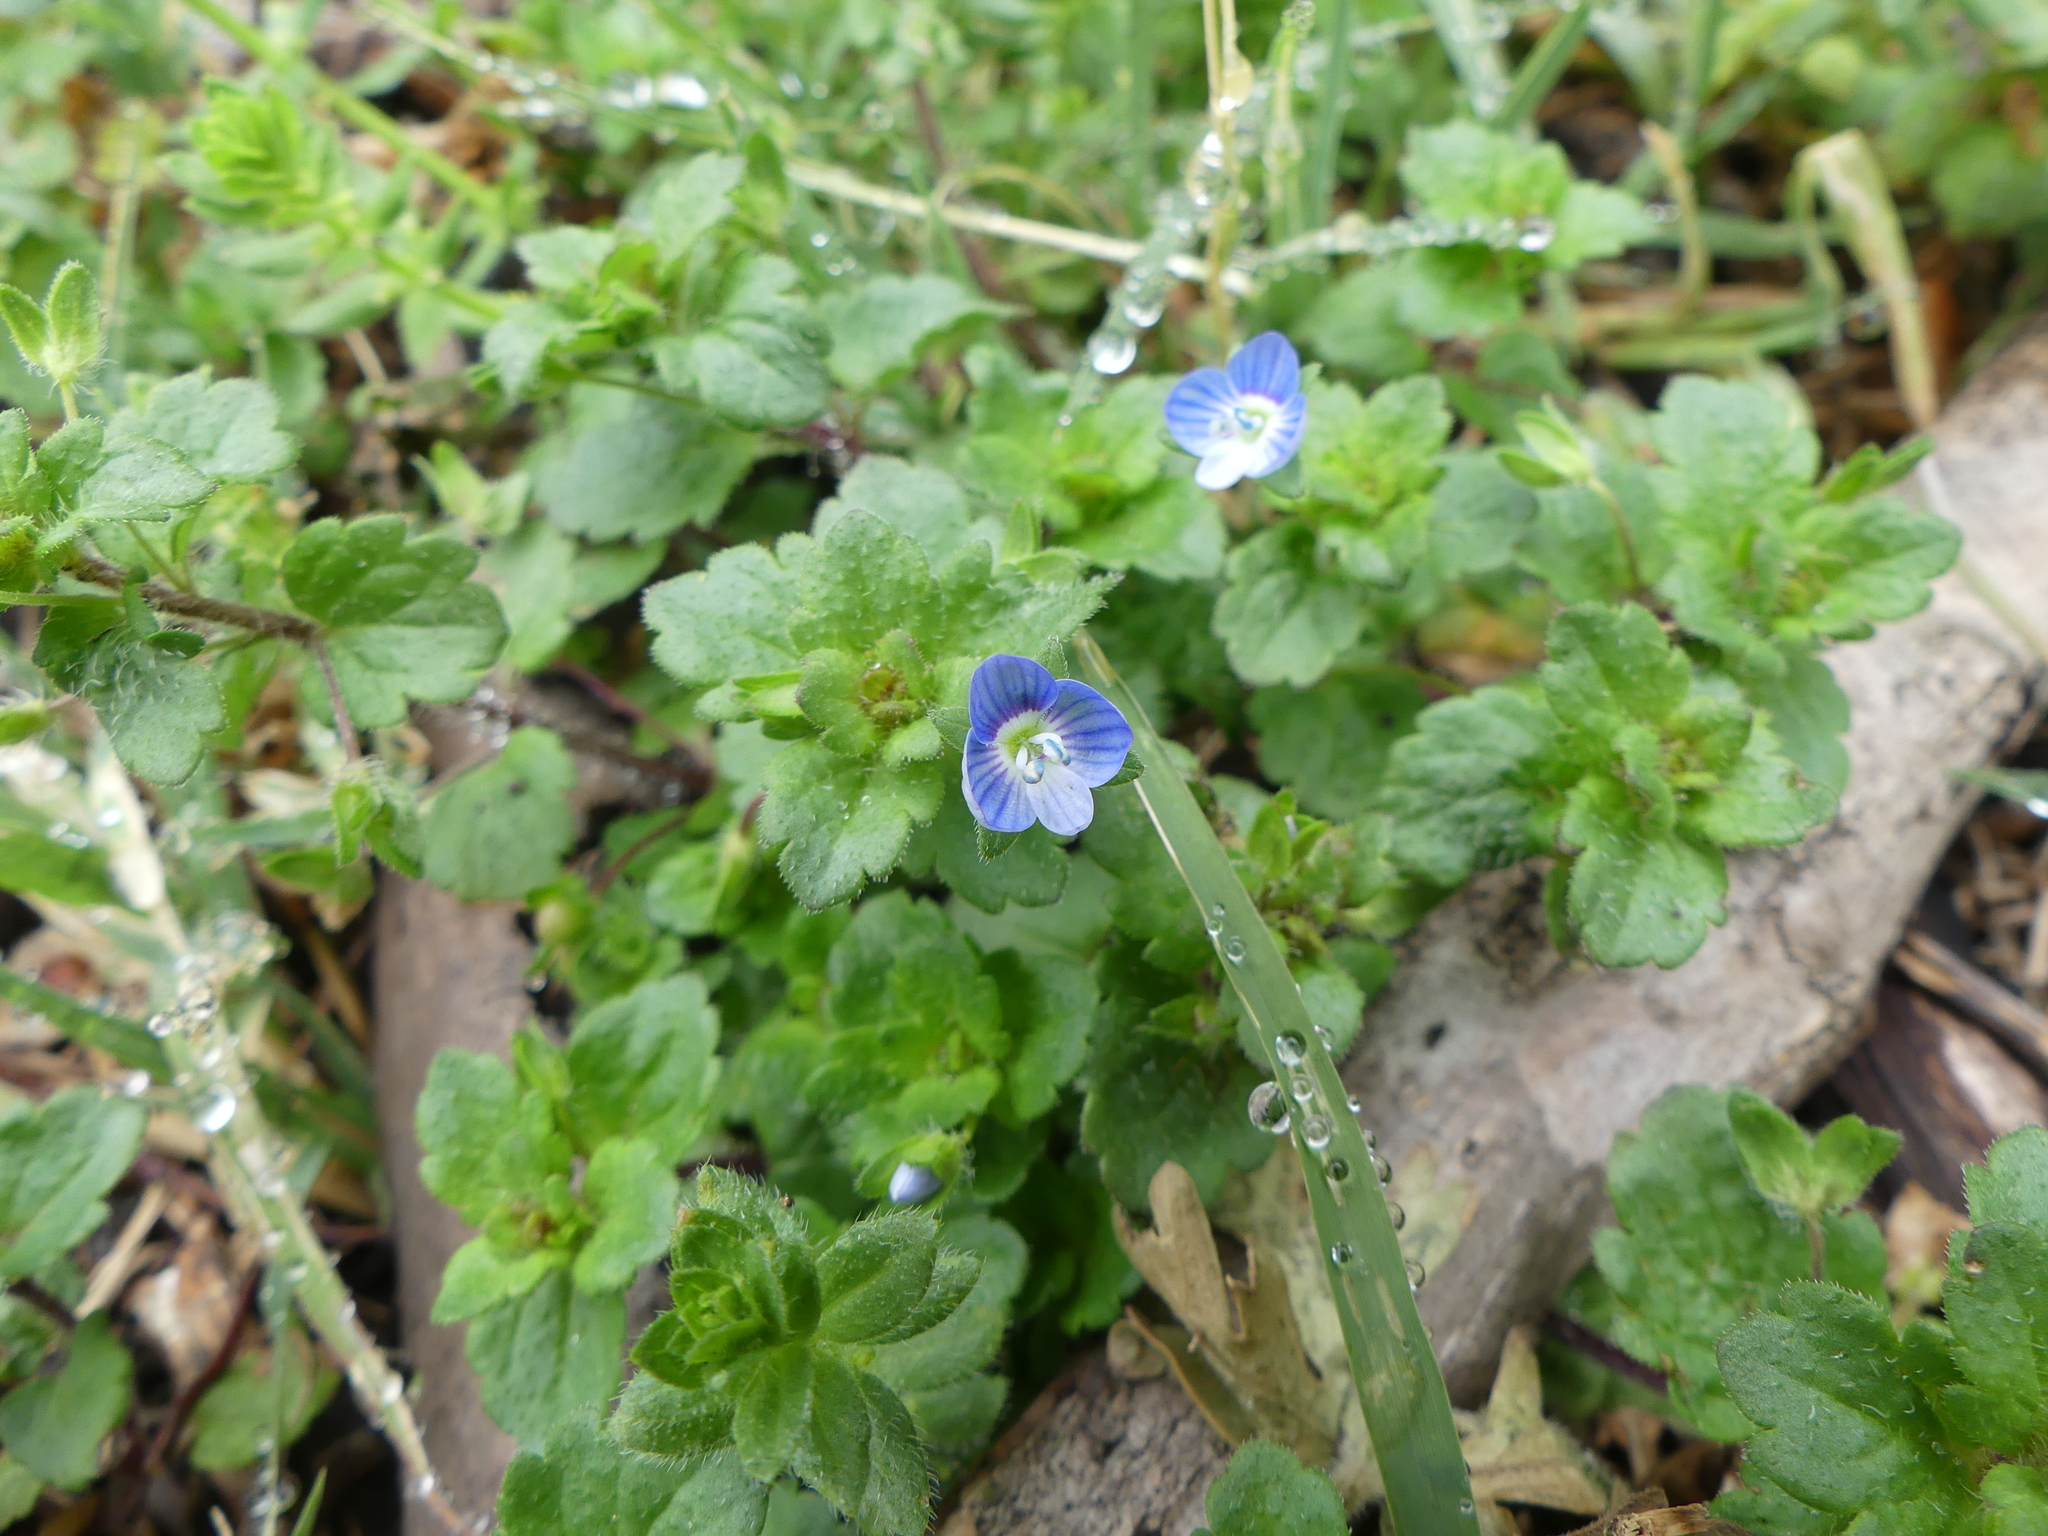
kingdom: Plantae
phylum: Tracheophyta
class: Magnoliopsida
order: Lamiales
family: Plantaginaceae
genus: Veronica
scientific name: Veronica persica
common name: Common field-speedwell
